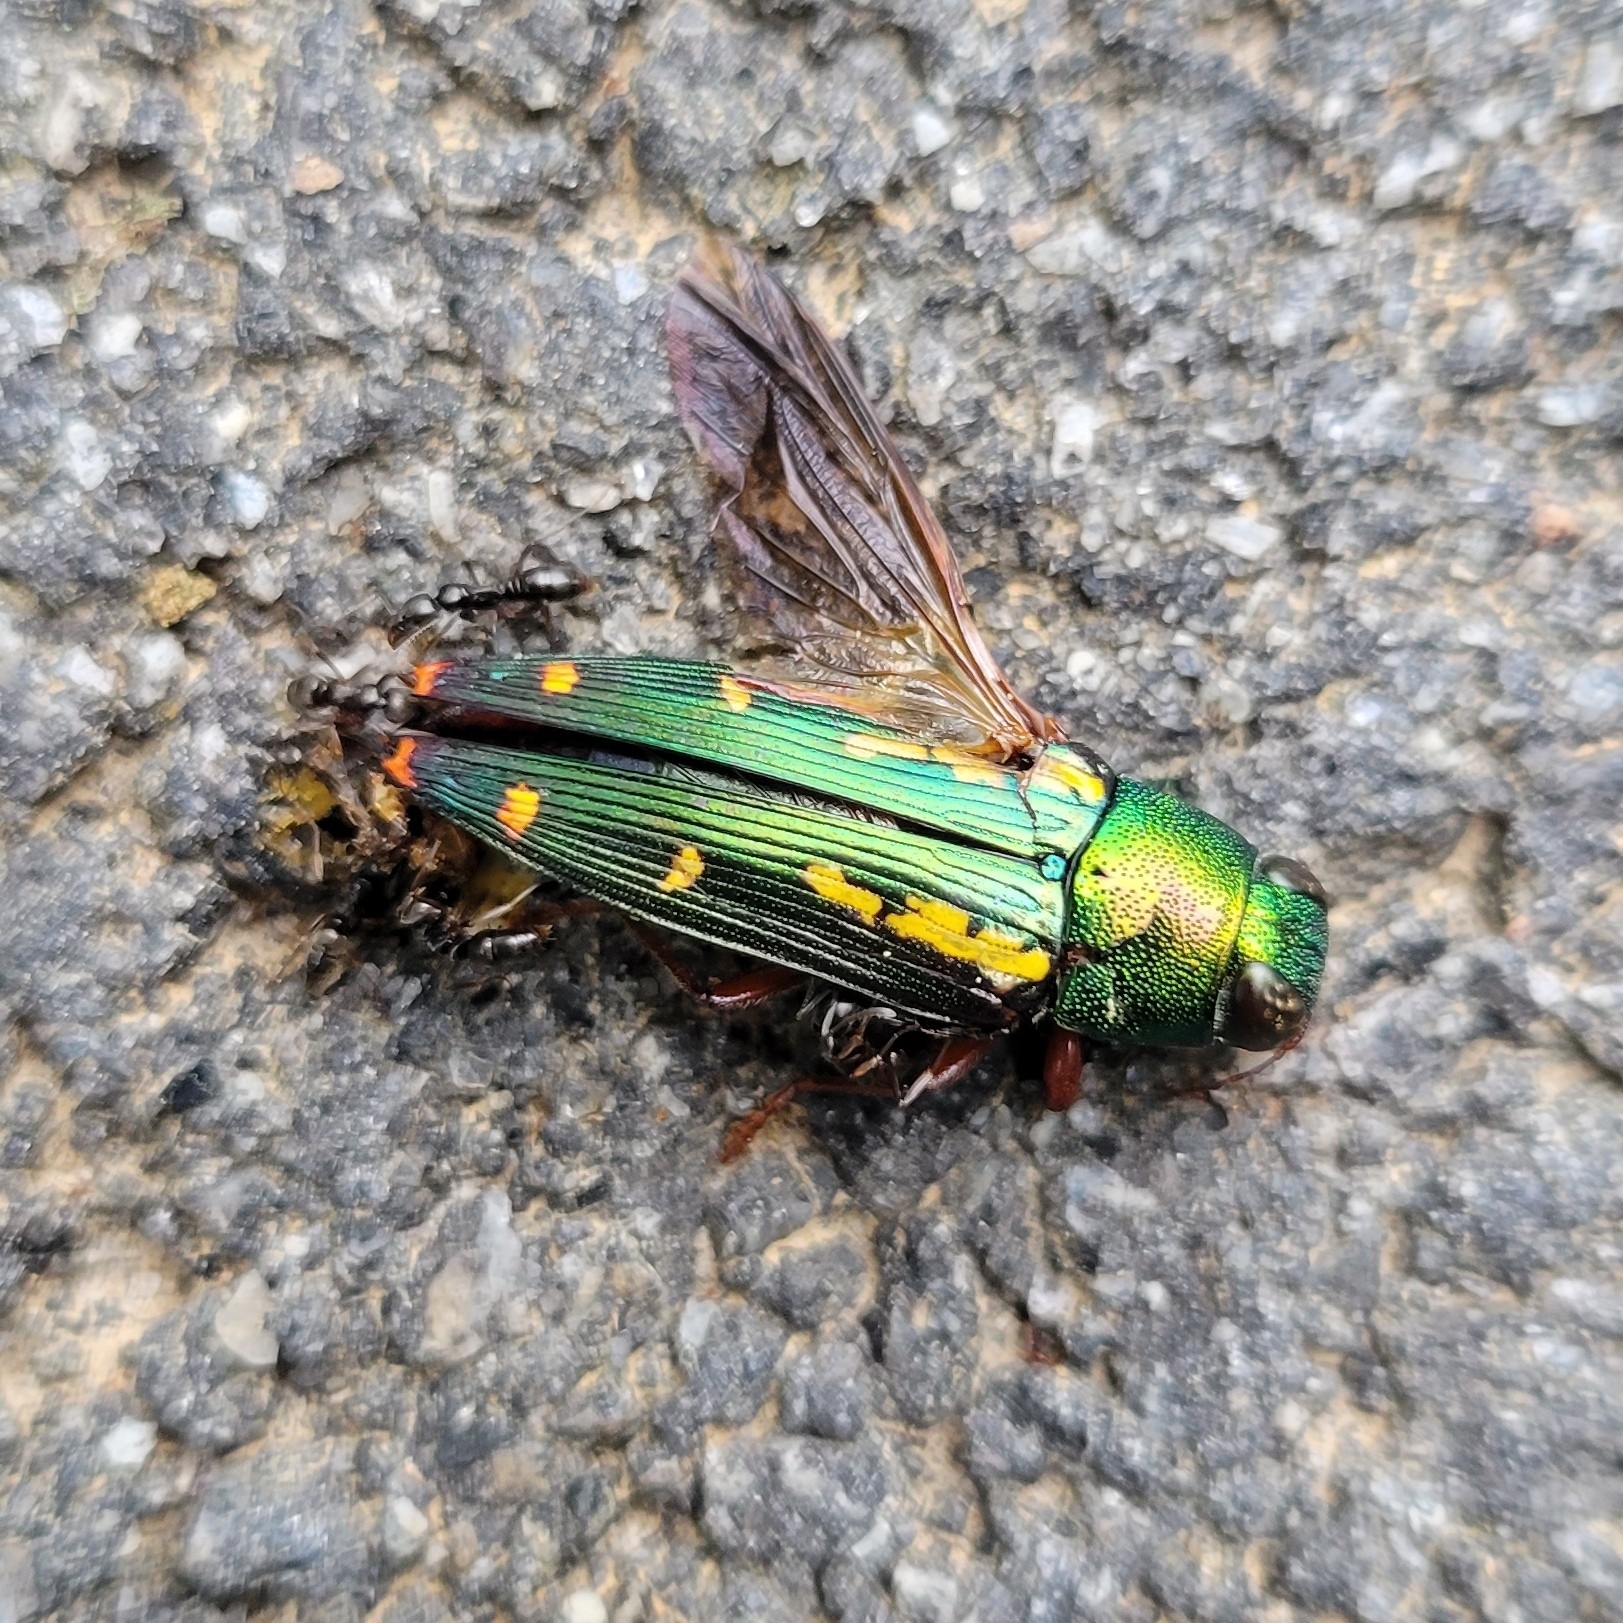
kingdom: Animalia
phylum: Arthropoda
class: Insecta
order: Coleoptera
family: Buprestidae
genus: Buprestis
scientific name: Buprestis rufipes
